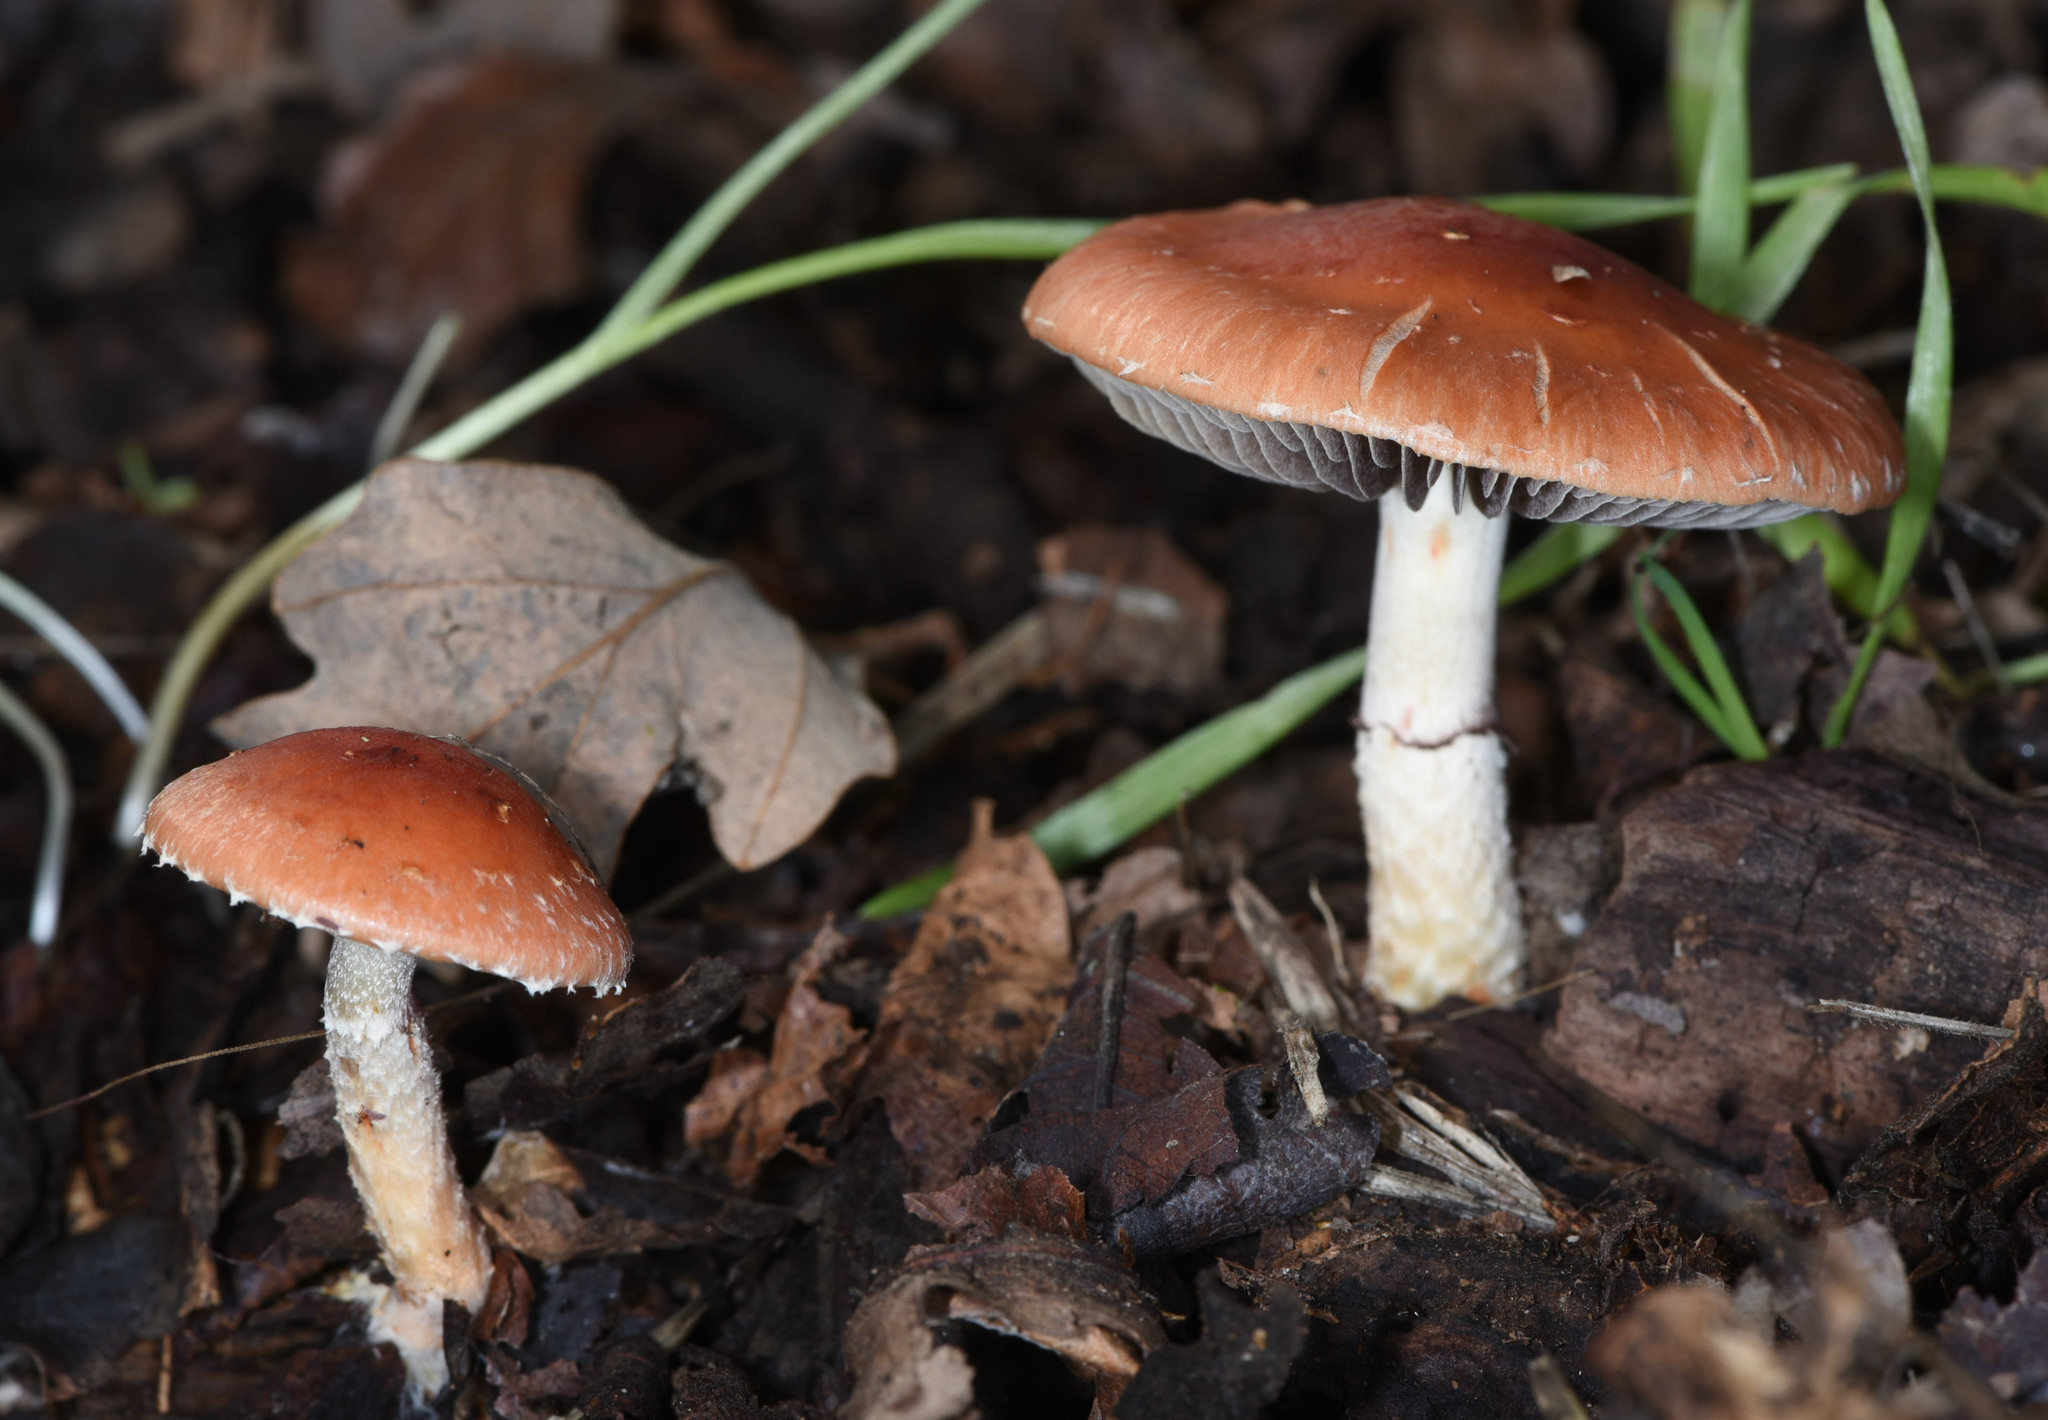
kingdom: Fungi
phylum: Basidiomycota
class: Agaricomycetes
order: Agaricales
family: Strophariaceae
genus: Leratiomyces
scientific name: Leratiomyces ceres
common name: Redlead roundhead
